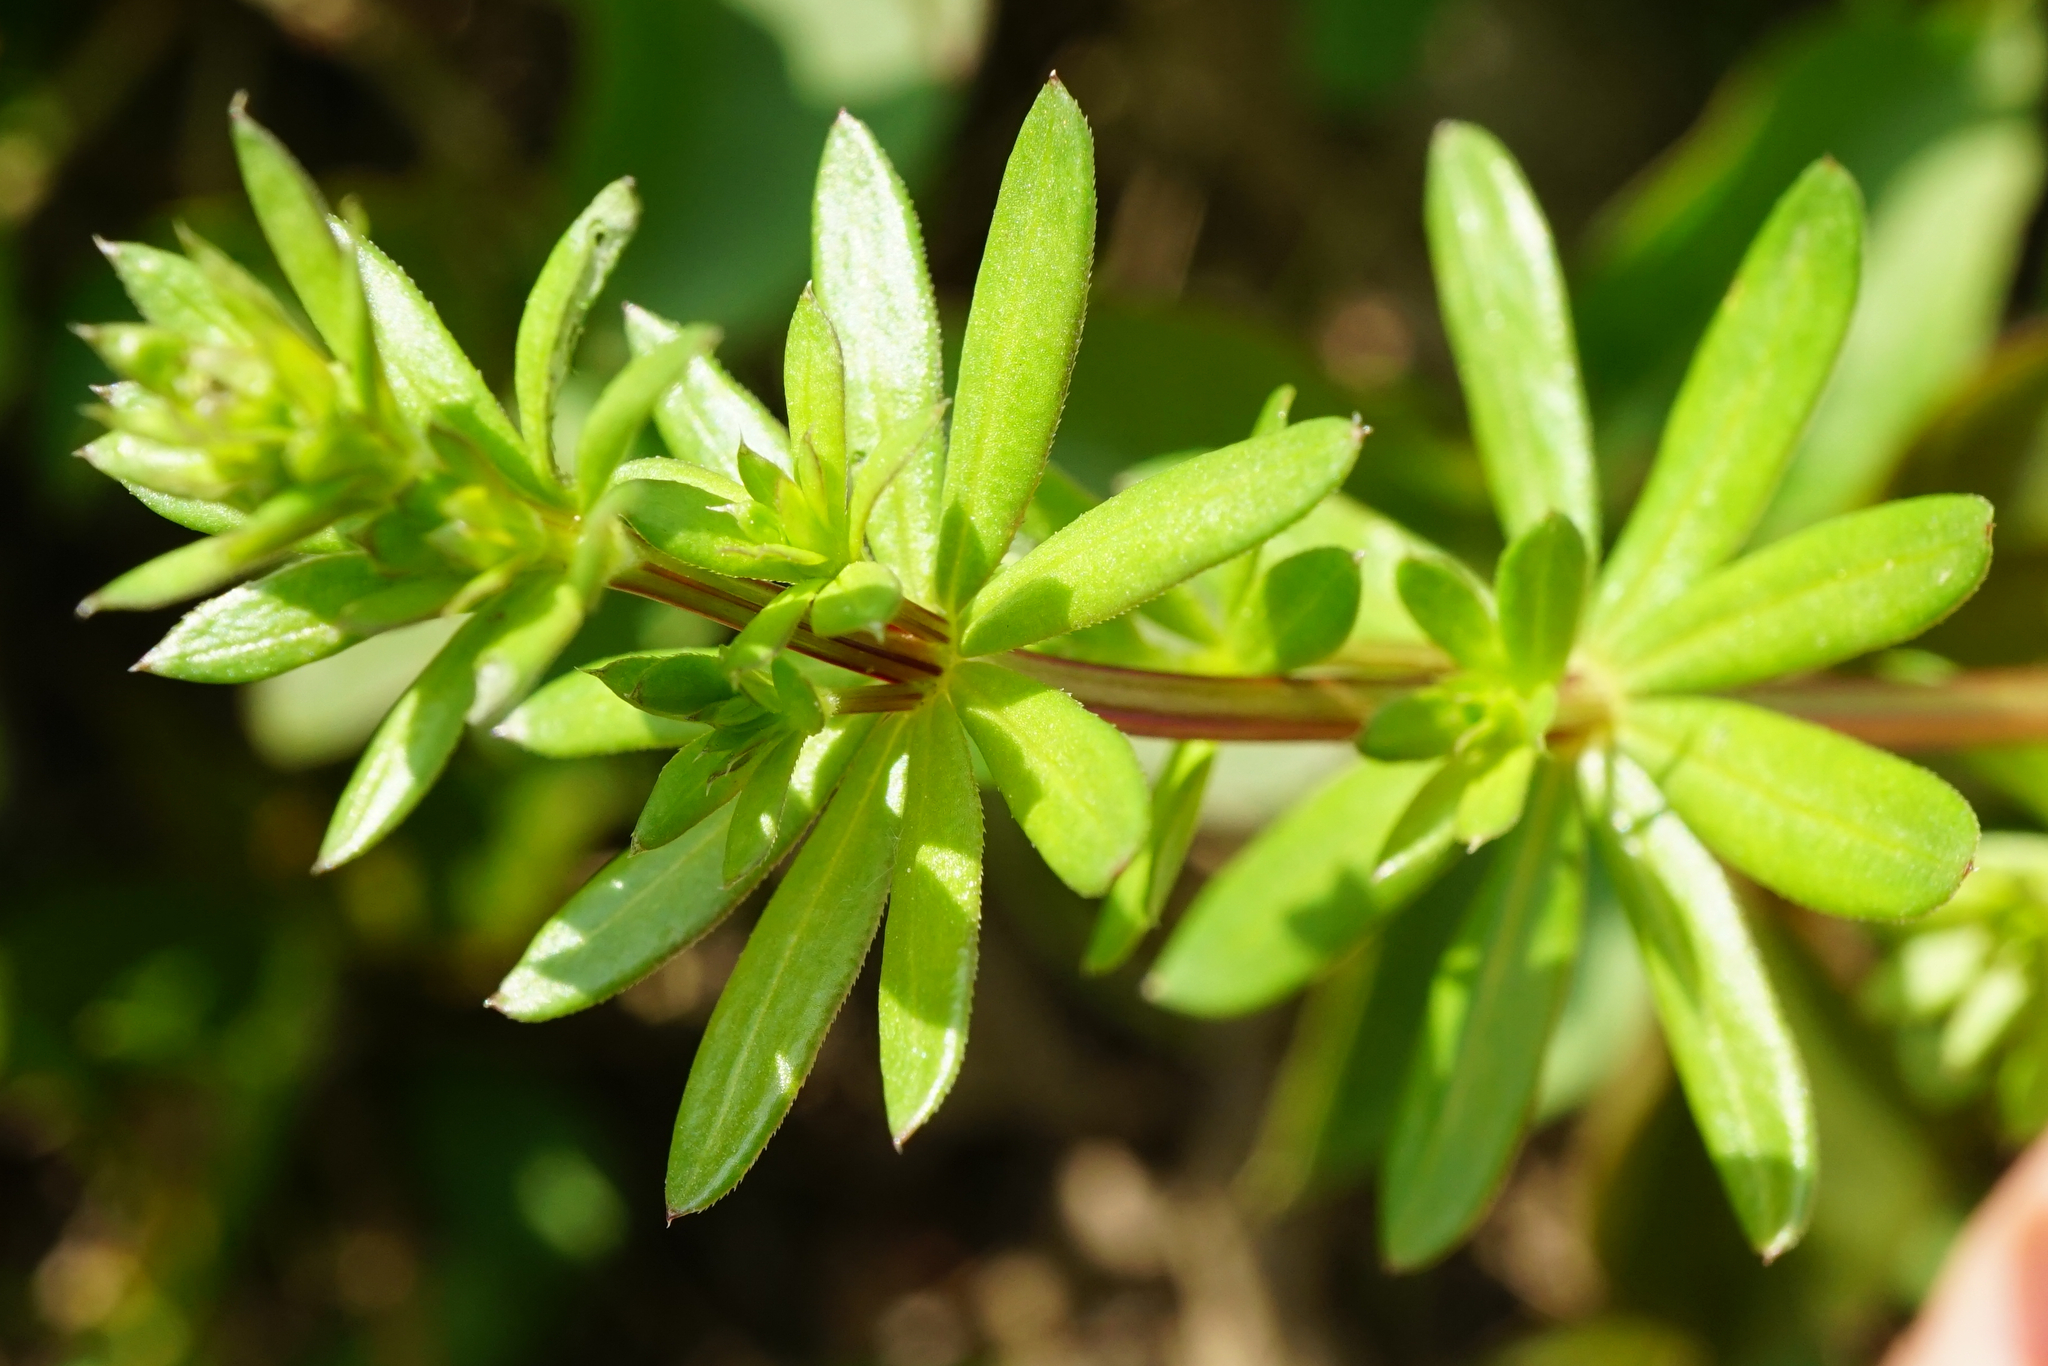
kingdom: Plantae
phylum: Tracheophyta
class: Magnoliopsida
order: Gentianales
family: Rubiaceae
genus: Galium
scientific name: Galium album
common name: White bedstraw
